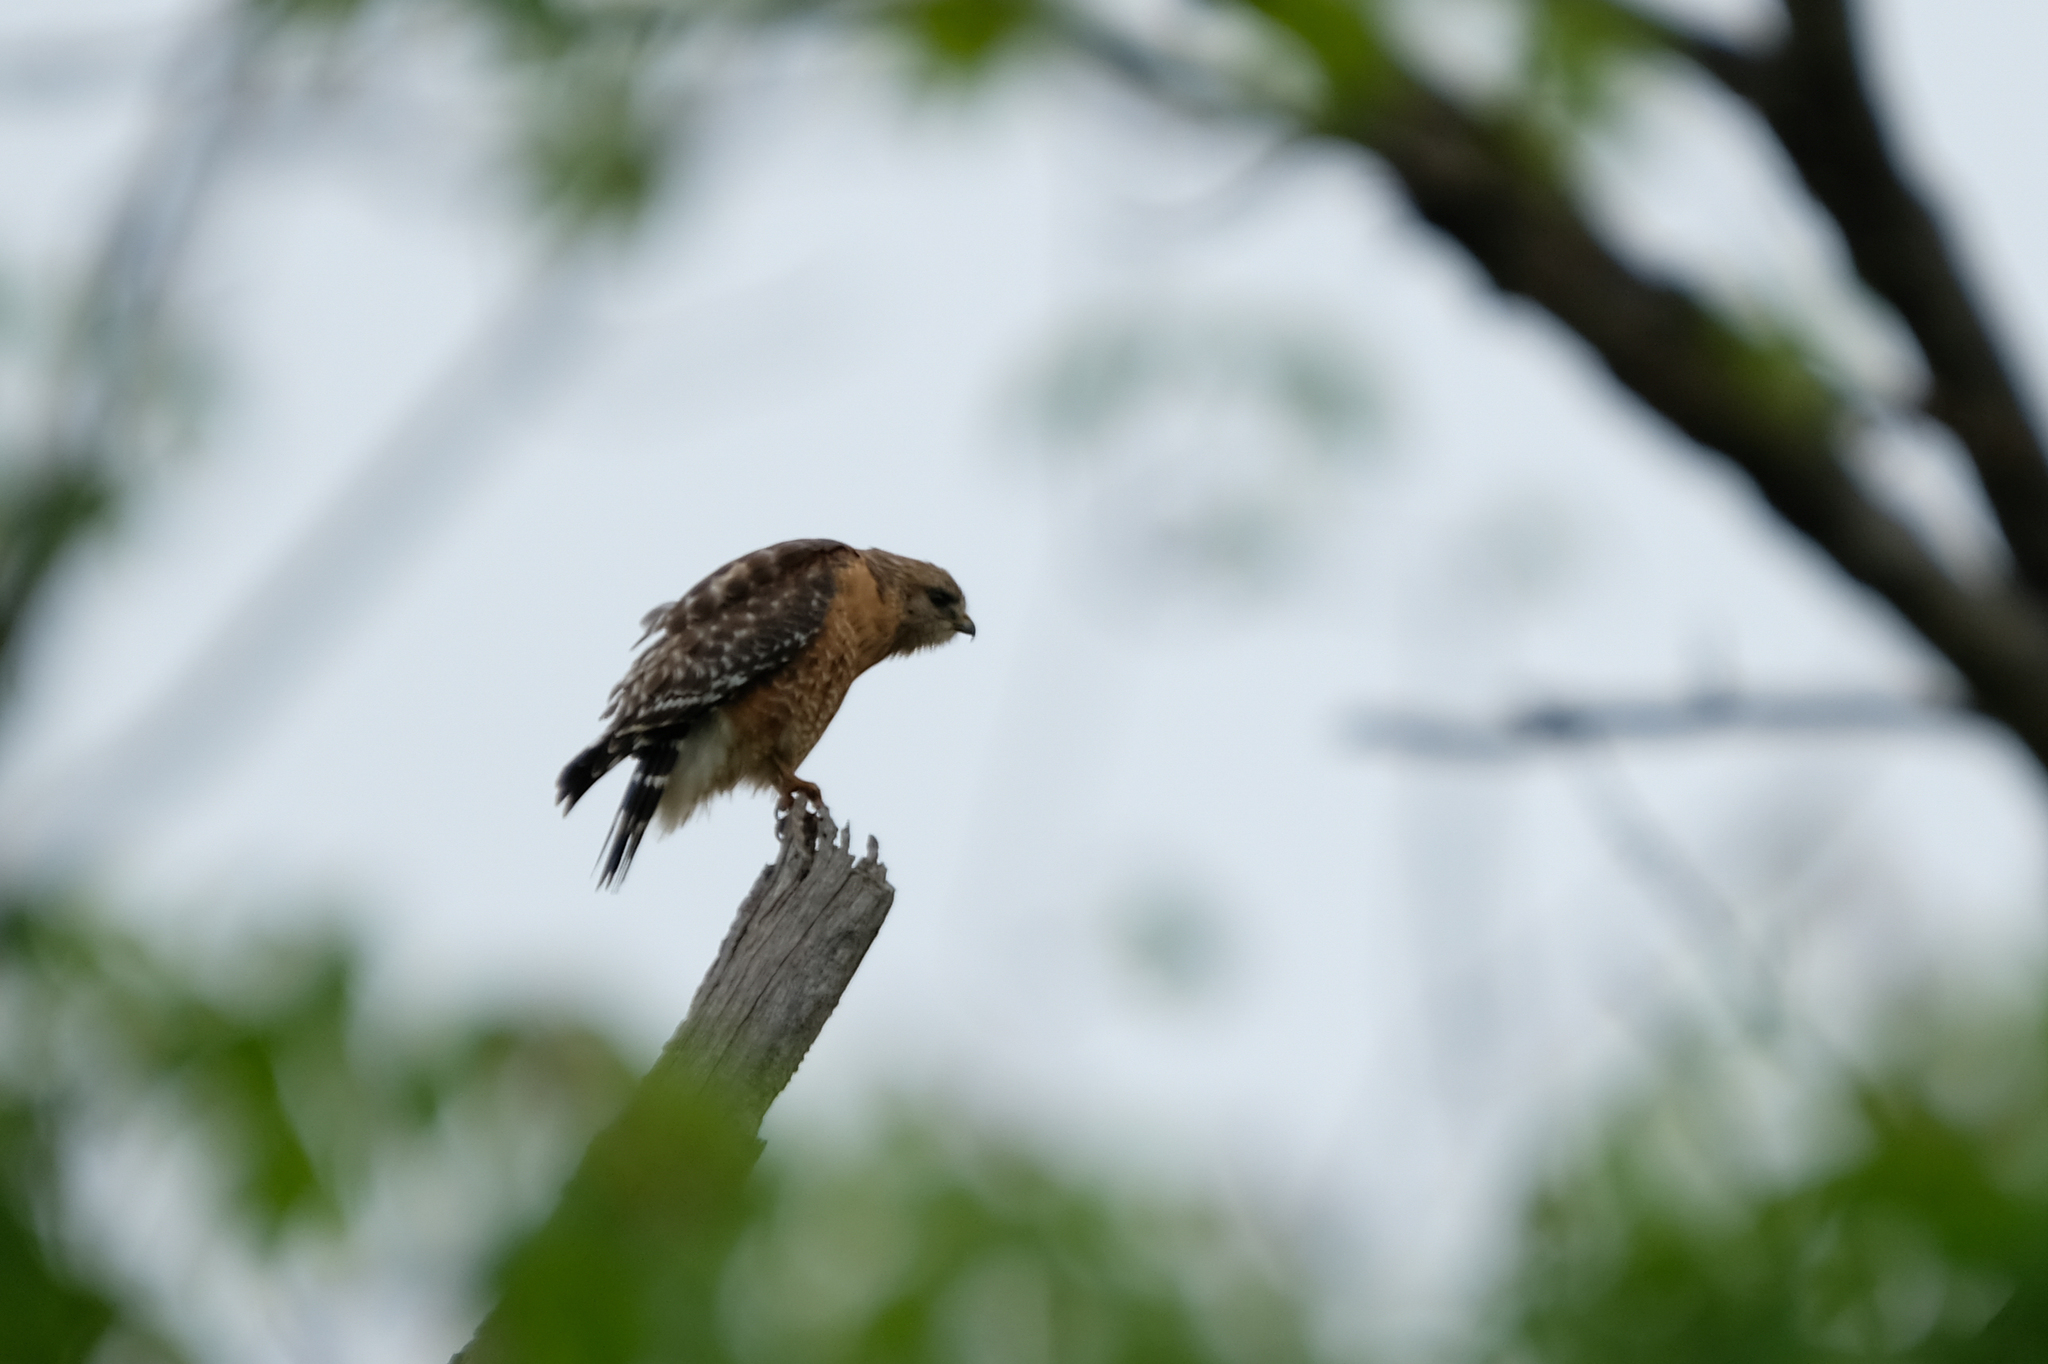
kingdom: Animalia
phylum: Chordata
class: Aves
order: Accipitriformes
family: Accipitridae
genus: Buteo
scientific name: Buteo lineatus
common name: Red-shouldered hawk
